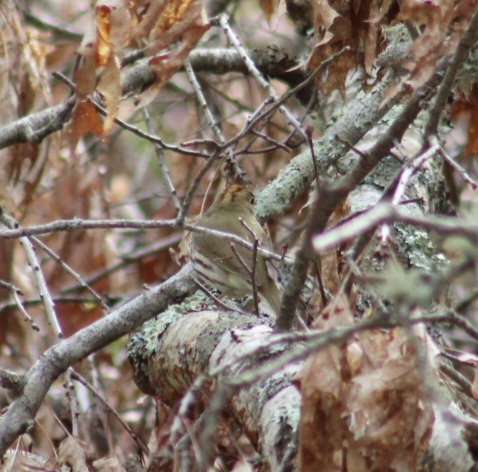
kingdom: Animalia
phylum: Chordata
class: Aves
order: Passeriformes
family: Parulidae
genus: Seiurus
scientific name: Seiurus aurocapilla
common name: Ovenbird
